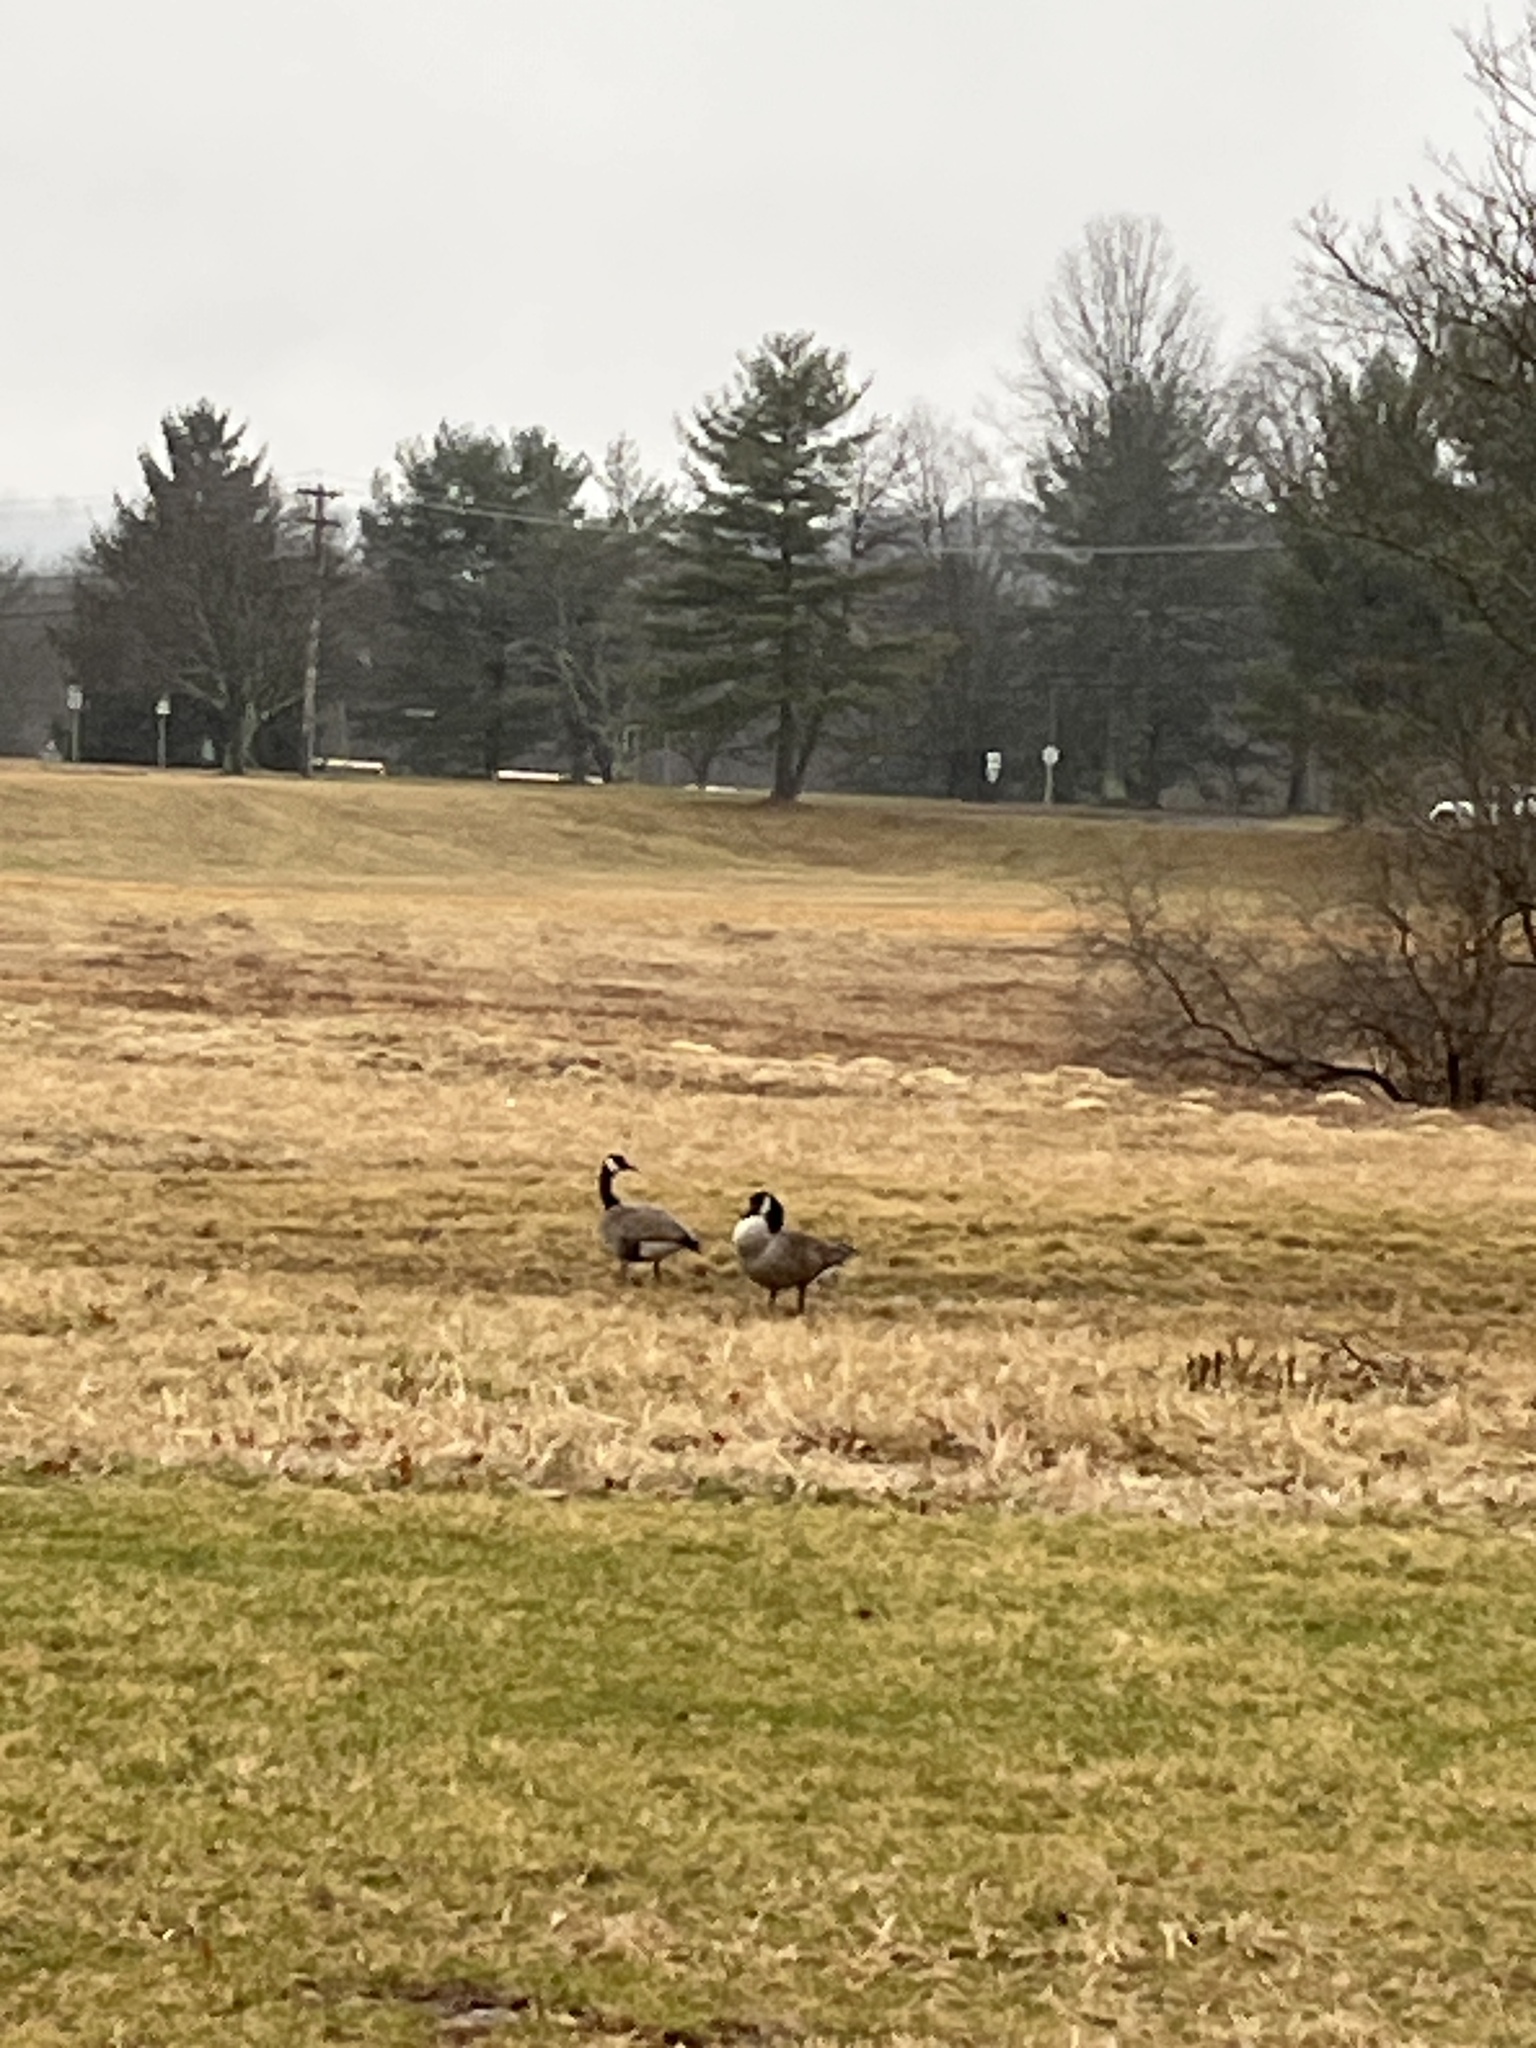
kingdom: Animalia
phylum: Chordata
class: Aves
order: Anseriformes
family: Anatidae
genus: Branta
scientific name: Branta canadensis
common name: Canada goose
